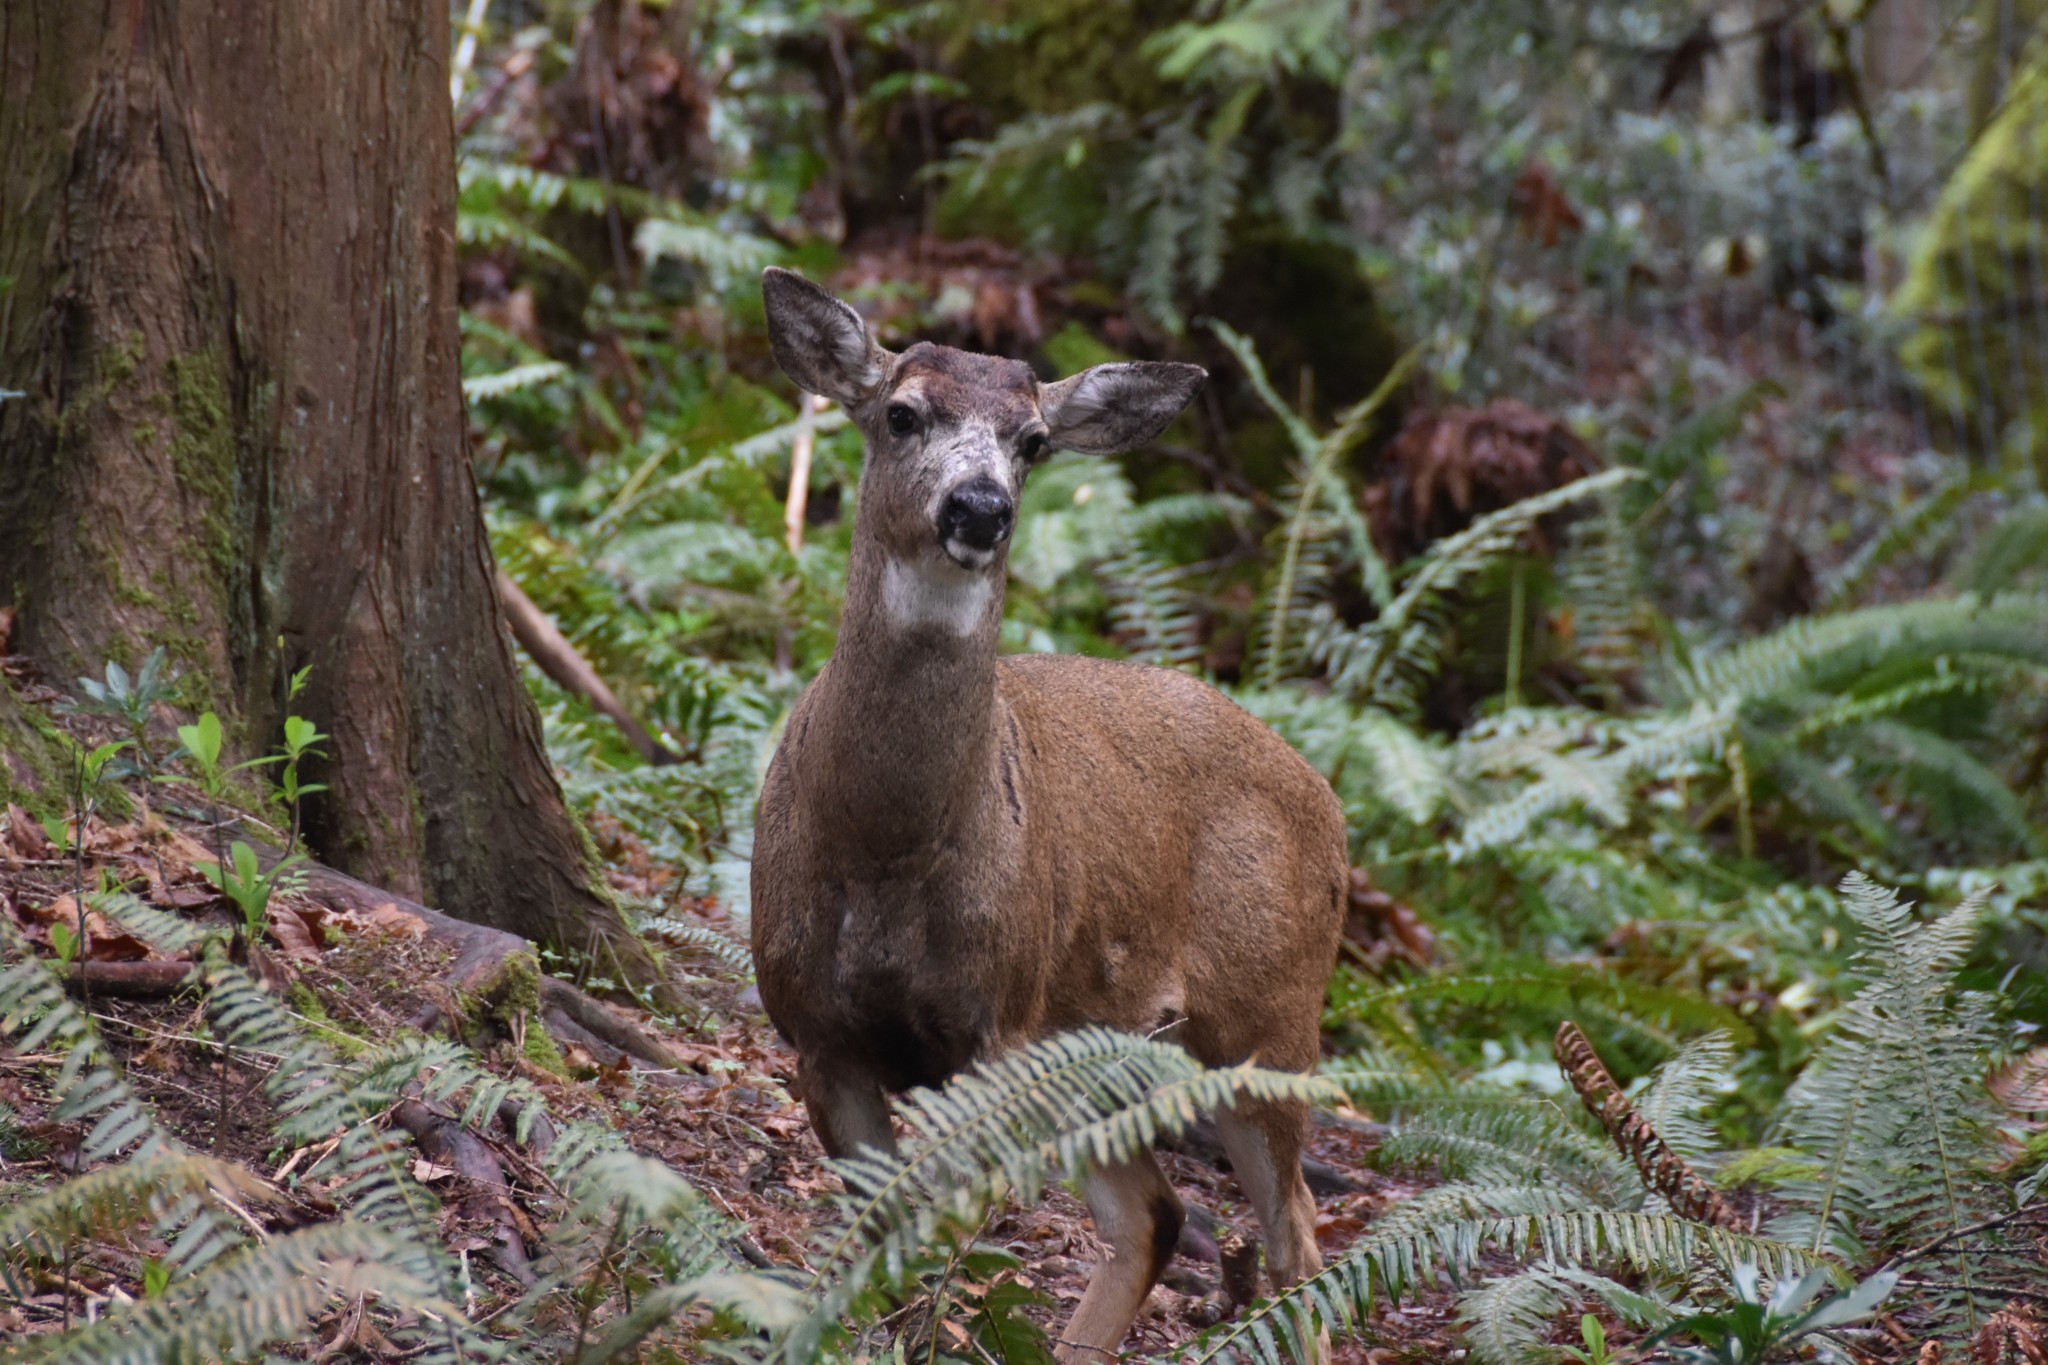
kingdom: Animalia
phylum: Chordata
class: Mammalia
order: Artiodactyla
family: Cervidae
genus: Odocoileus
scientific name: Odocoileus hemionus
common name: Mule deer
